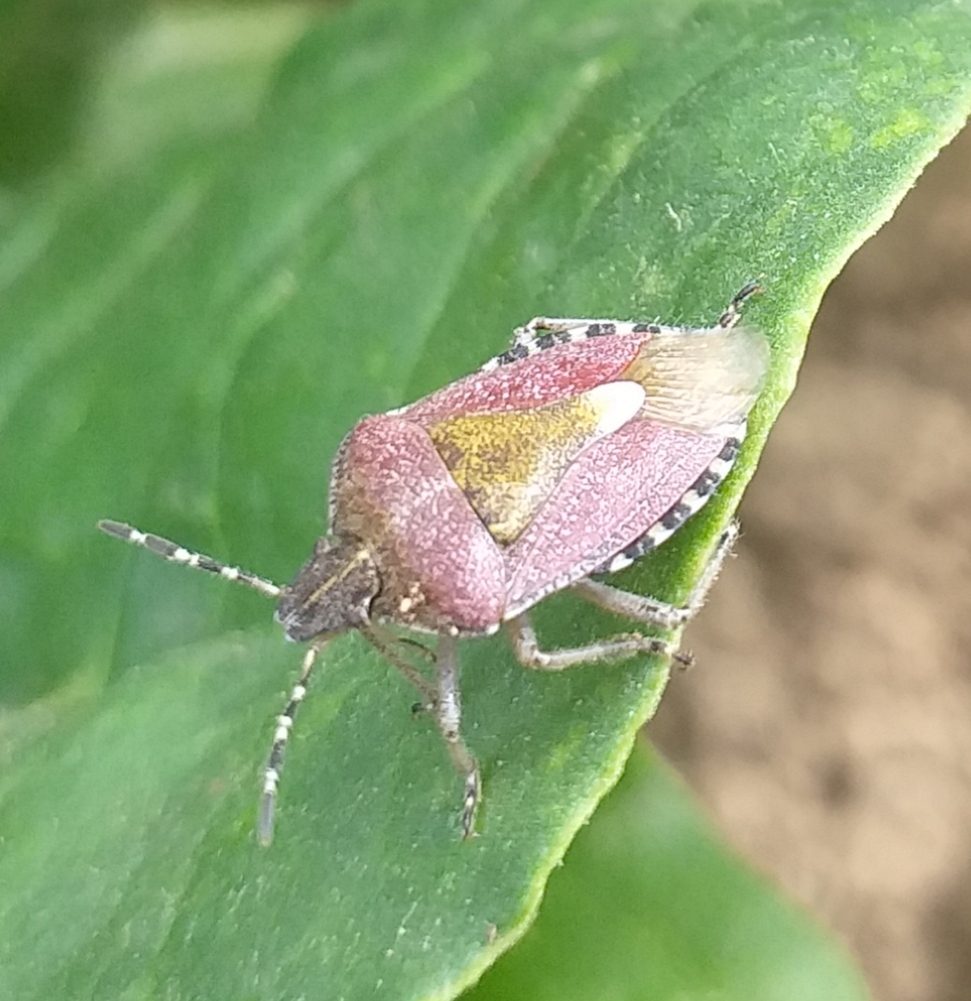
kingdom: Animalia
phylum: Arthropoda
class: Insecta
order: Hemiptera
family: Pentatomidae
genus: Dolycoris
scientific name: Dolycoris baccarum
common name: Sloe bug
